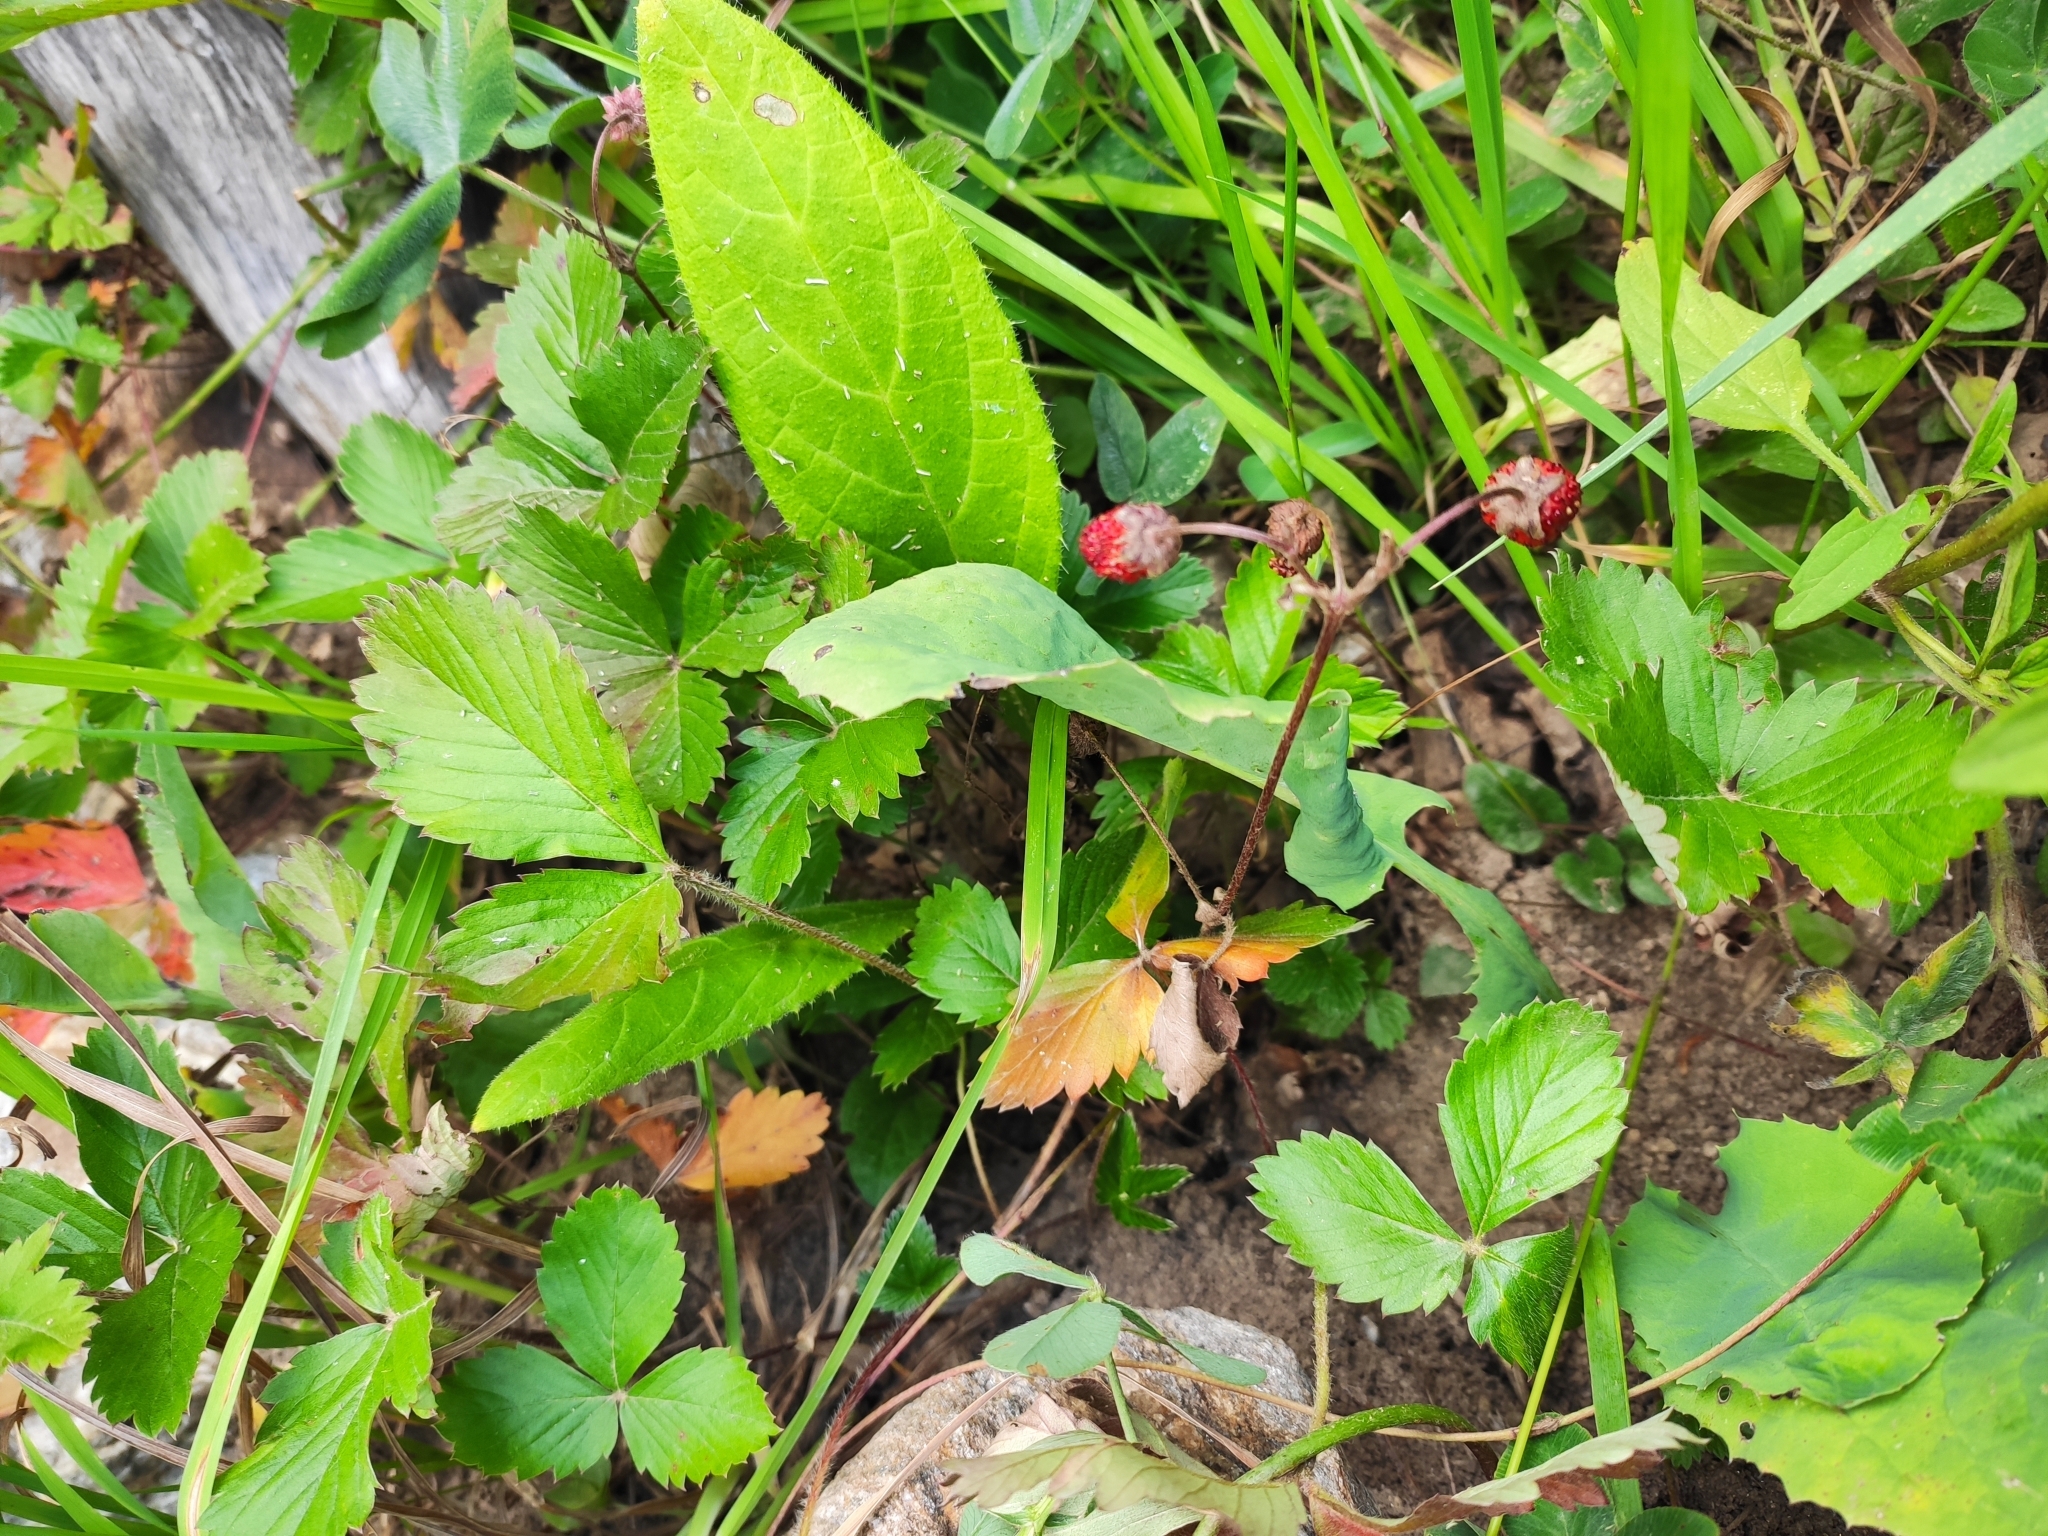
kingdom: Plantae
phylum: Tracheophyta
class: Magnoliopsida
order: Rosales
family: Rosaceae
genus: Fragaria
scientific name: Fragaria vesca
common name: Wild strawberry
